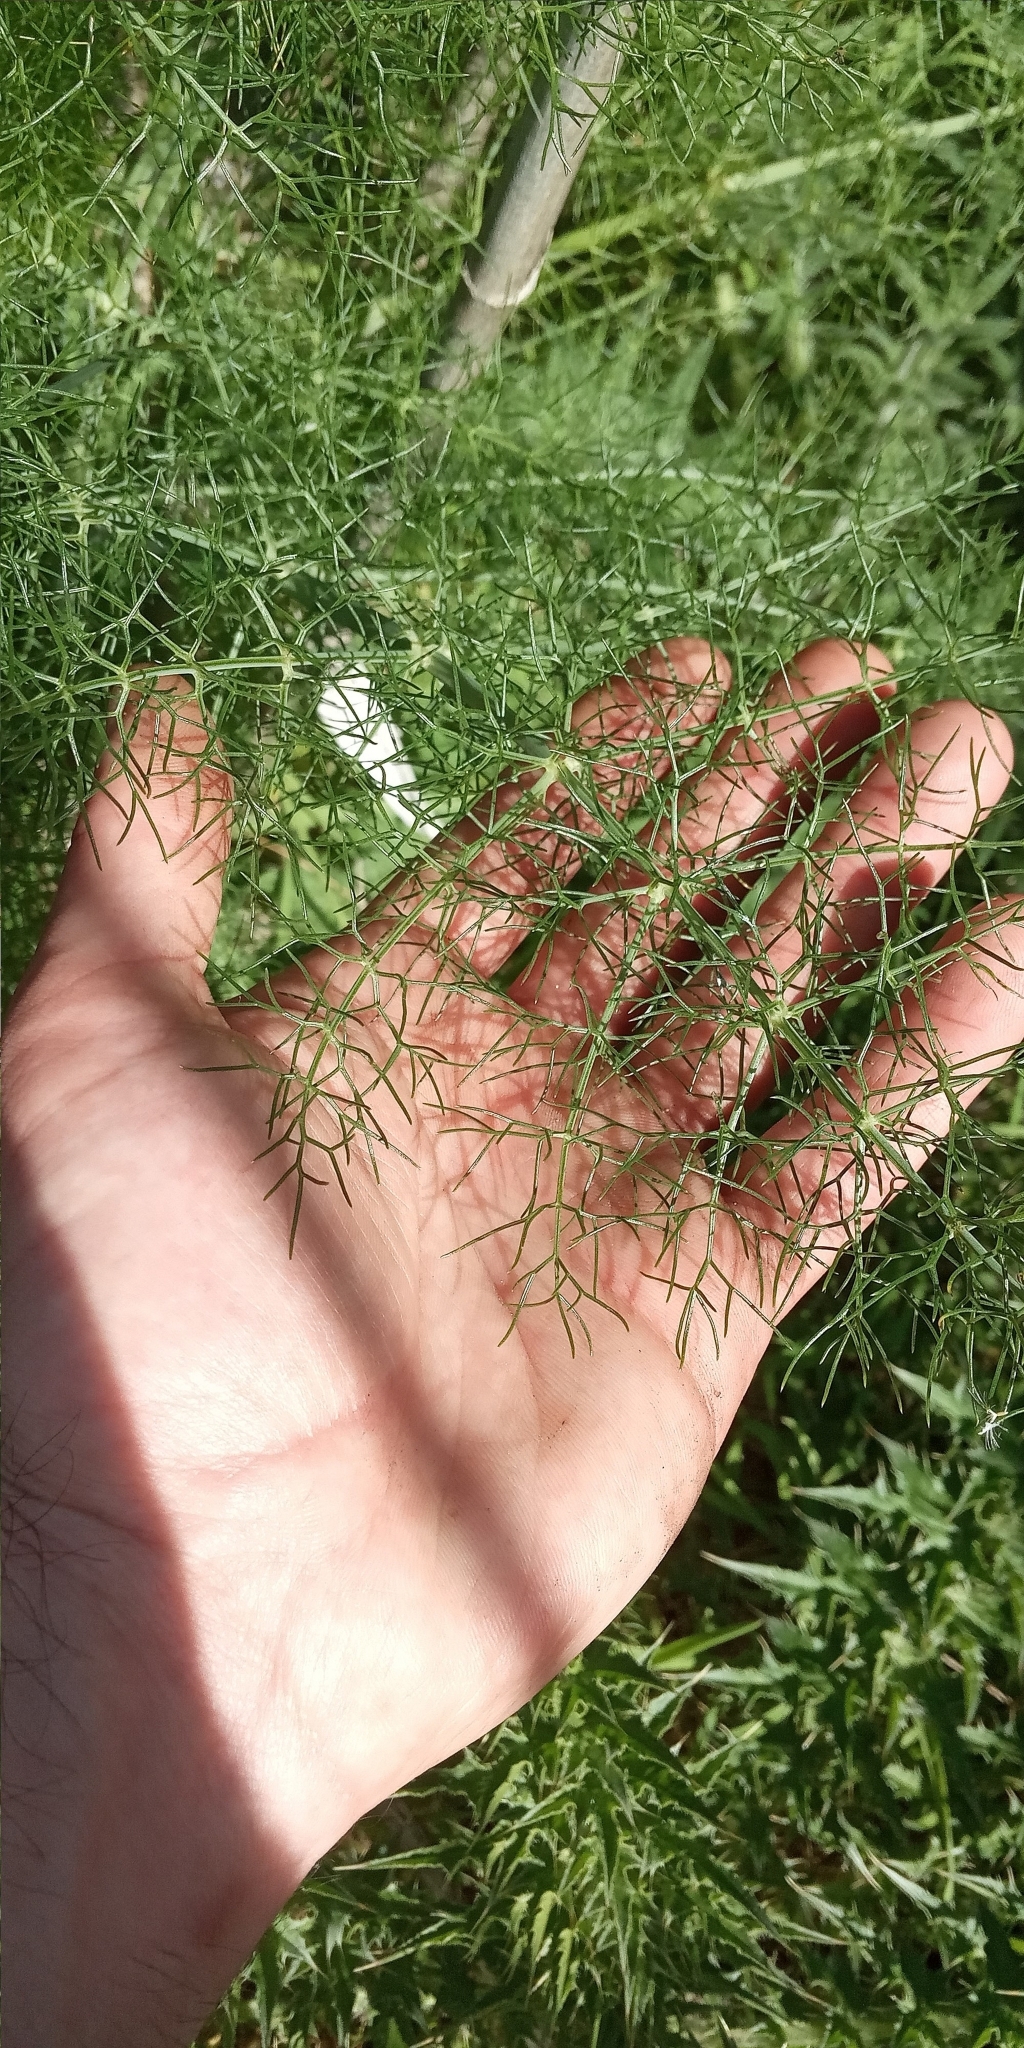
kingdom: Plantae
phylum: Tracheophyta
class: Magnoliopsida
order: Apiales
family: Apiaceae
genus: Foeniculum
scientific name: Foeniculum vulgare
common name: Fennel
